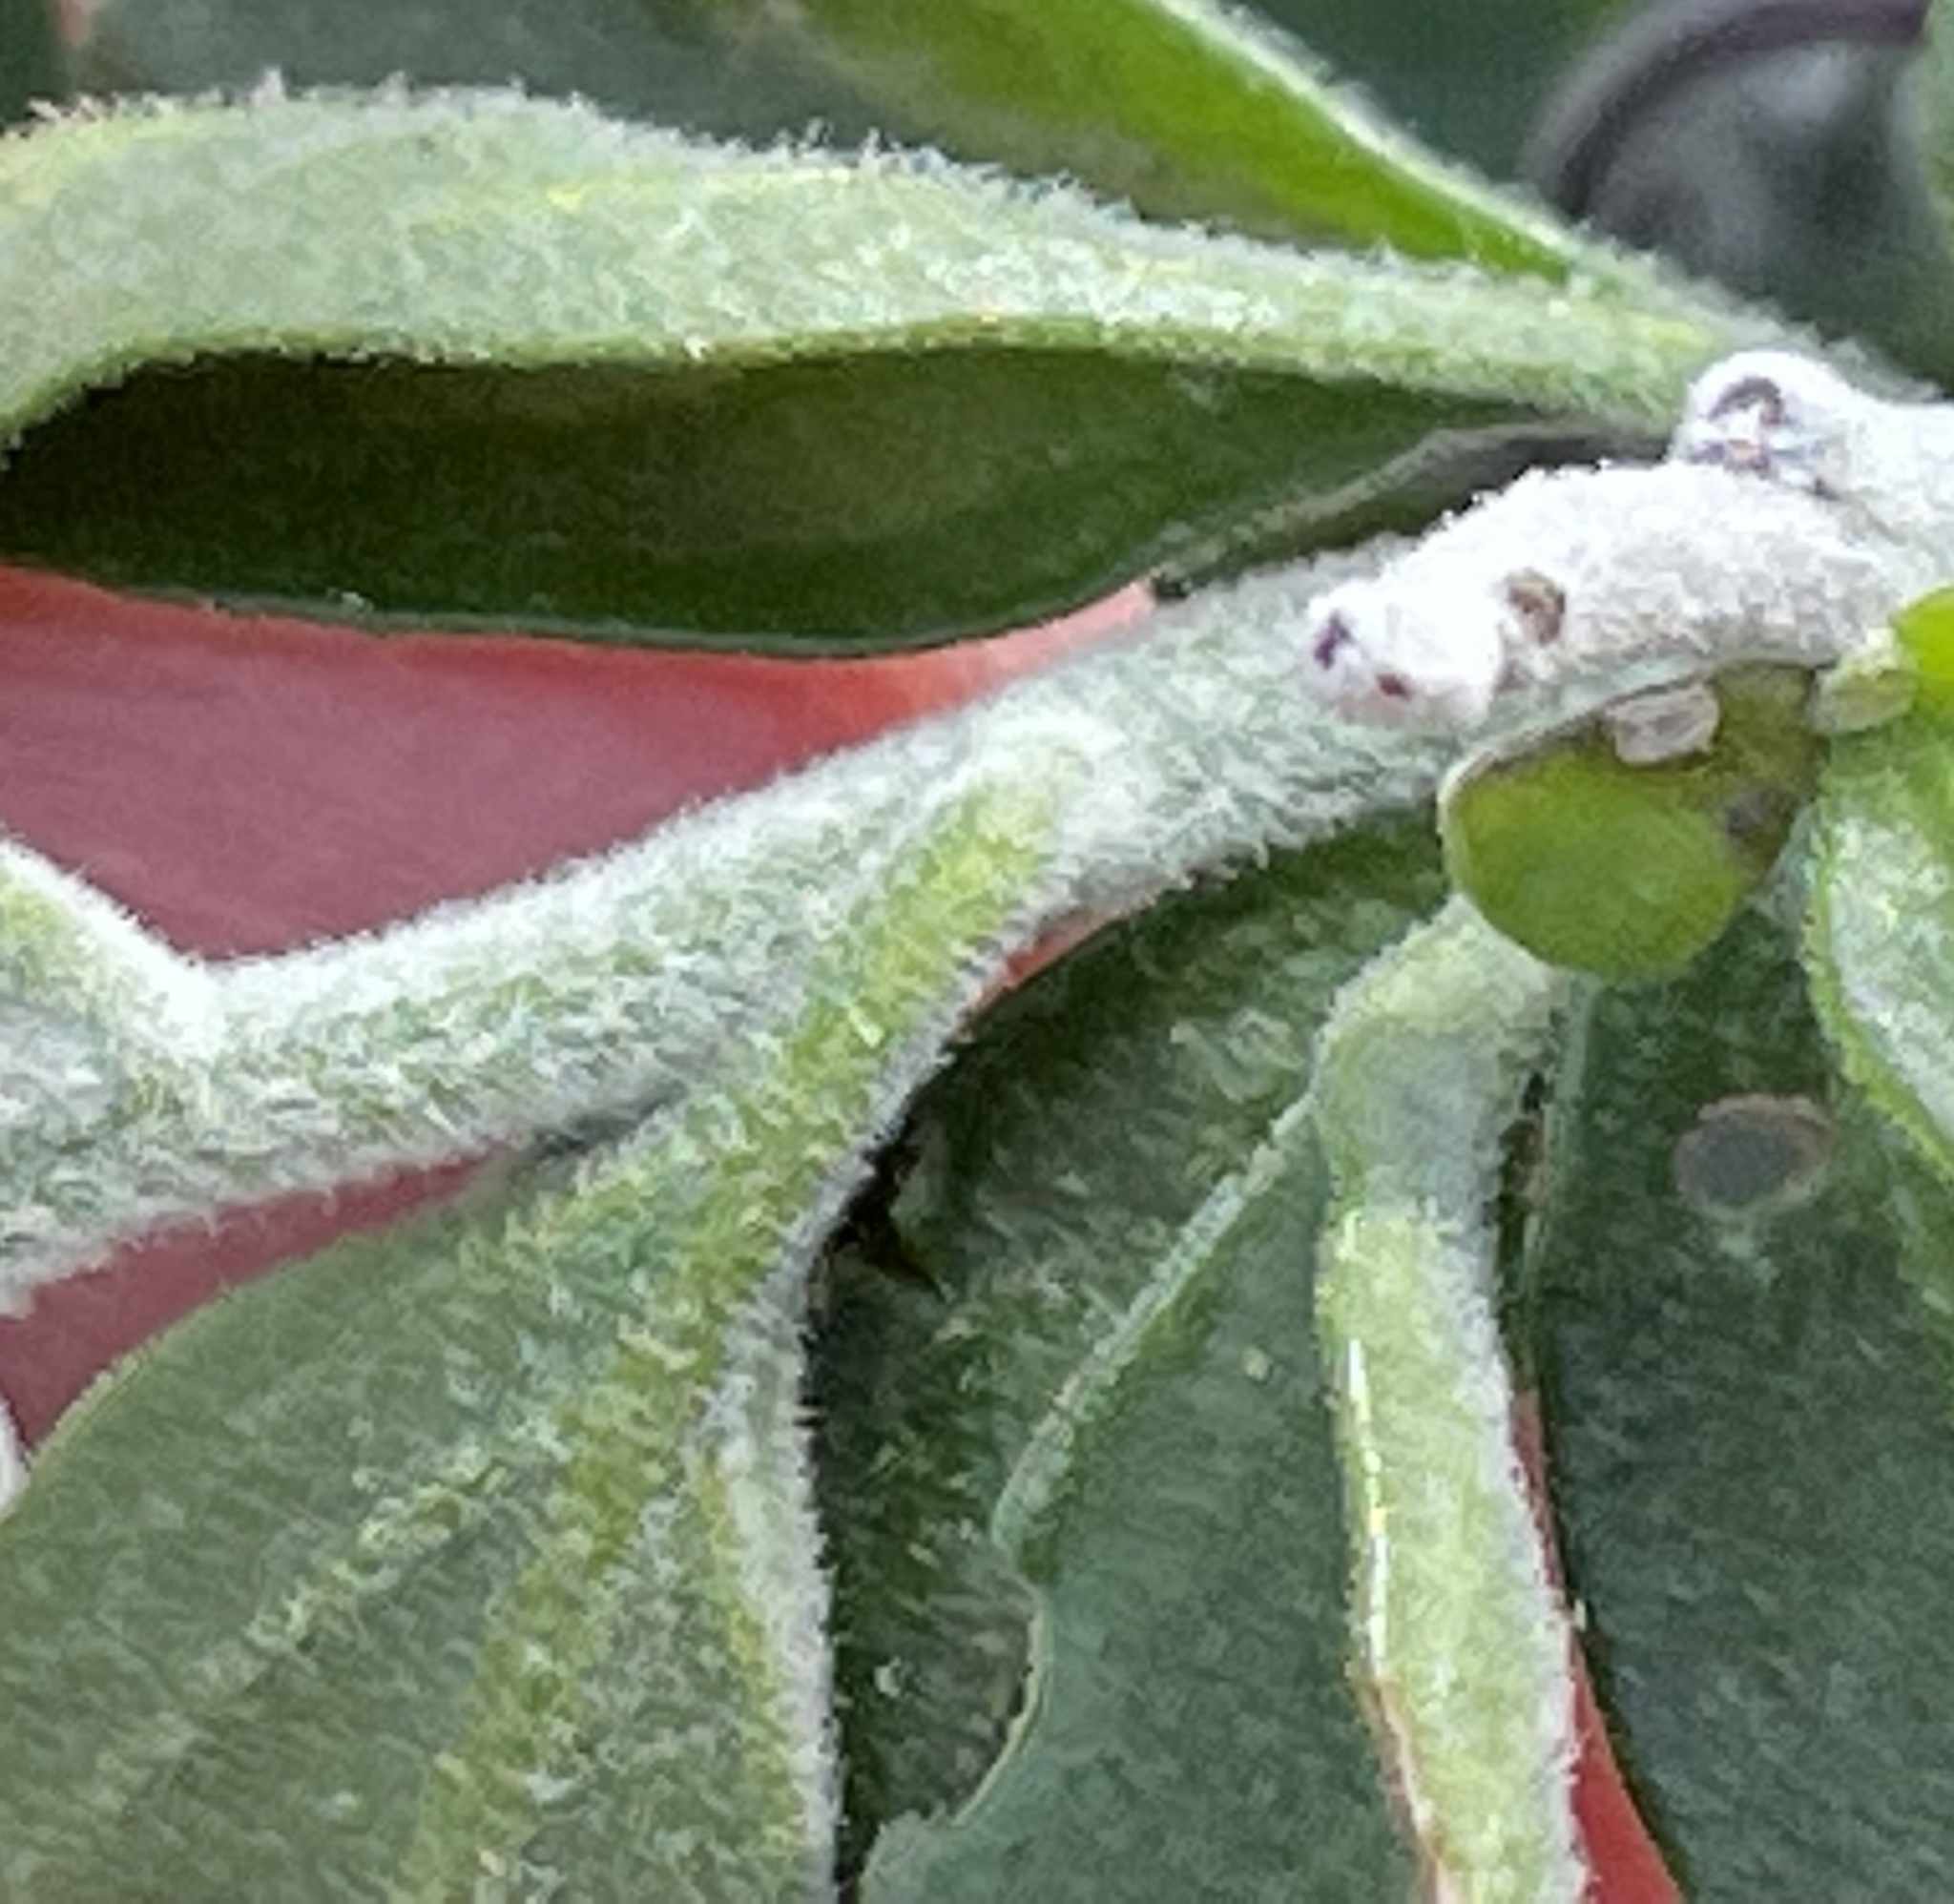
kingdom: Plantae
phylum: Tracheophyta
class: Magnoliopsida
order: Solanales
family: Solanaceae
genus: Solanum
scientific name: Solanum umbelliferum
